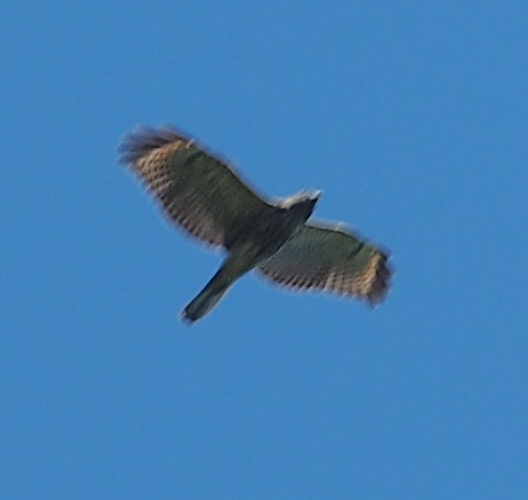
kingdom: Animalia
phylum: Chordata
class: Aves
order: Accipitriformes
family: Accipitridae
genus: Buteo
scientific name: Buteo lineatus
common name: Red-shouldered hawk
